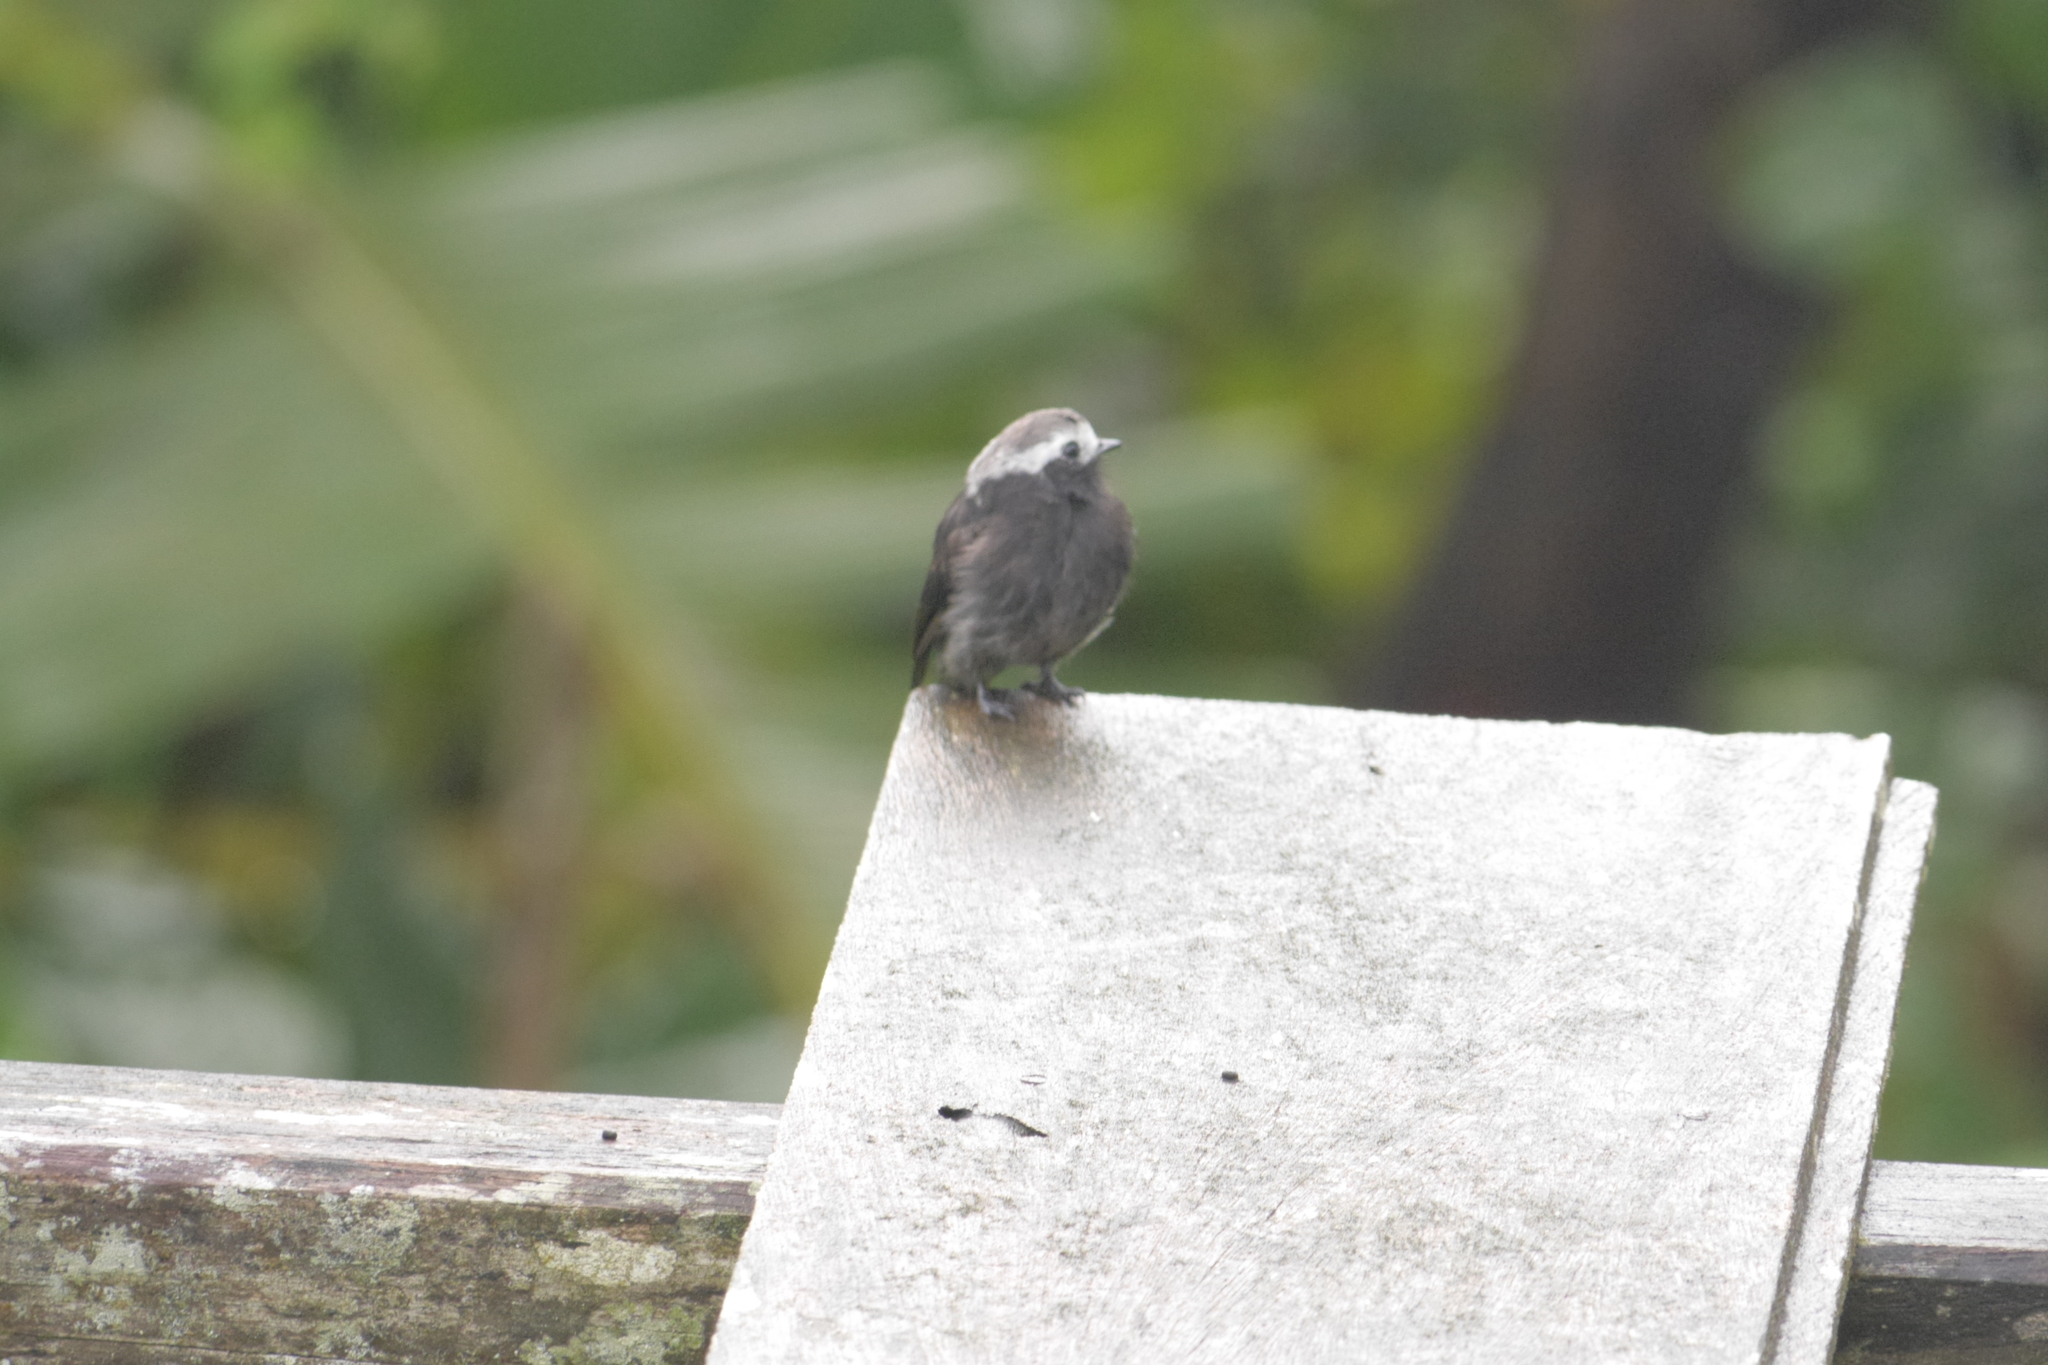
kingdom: Animalia
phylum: Chordata
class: Aves
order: Passeriformes
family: Tyrannidae
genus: Colonia
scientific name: Colonia colonus
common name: Long-tailed tyrant
